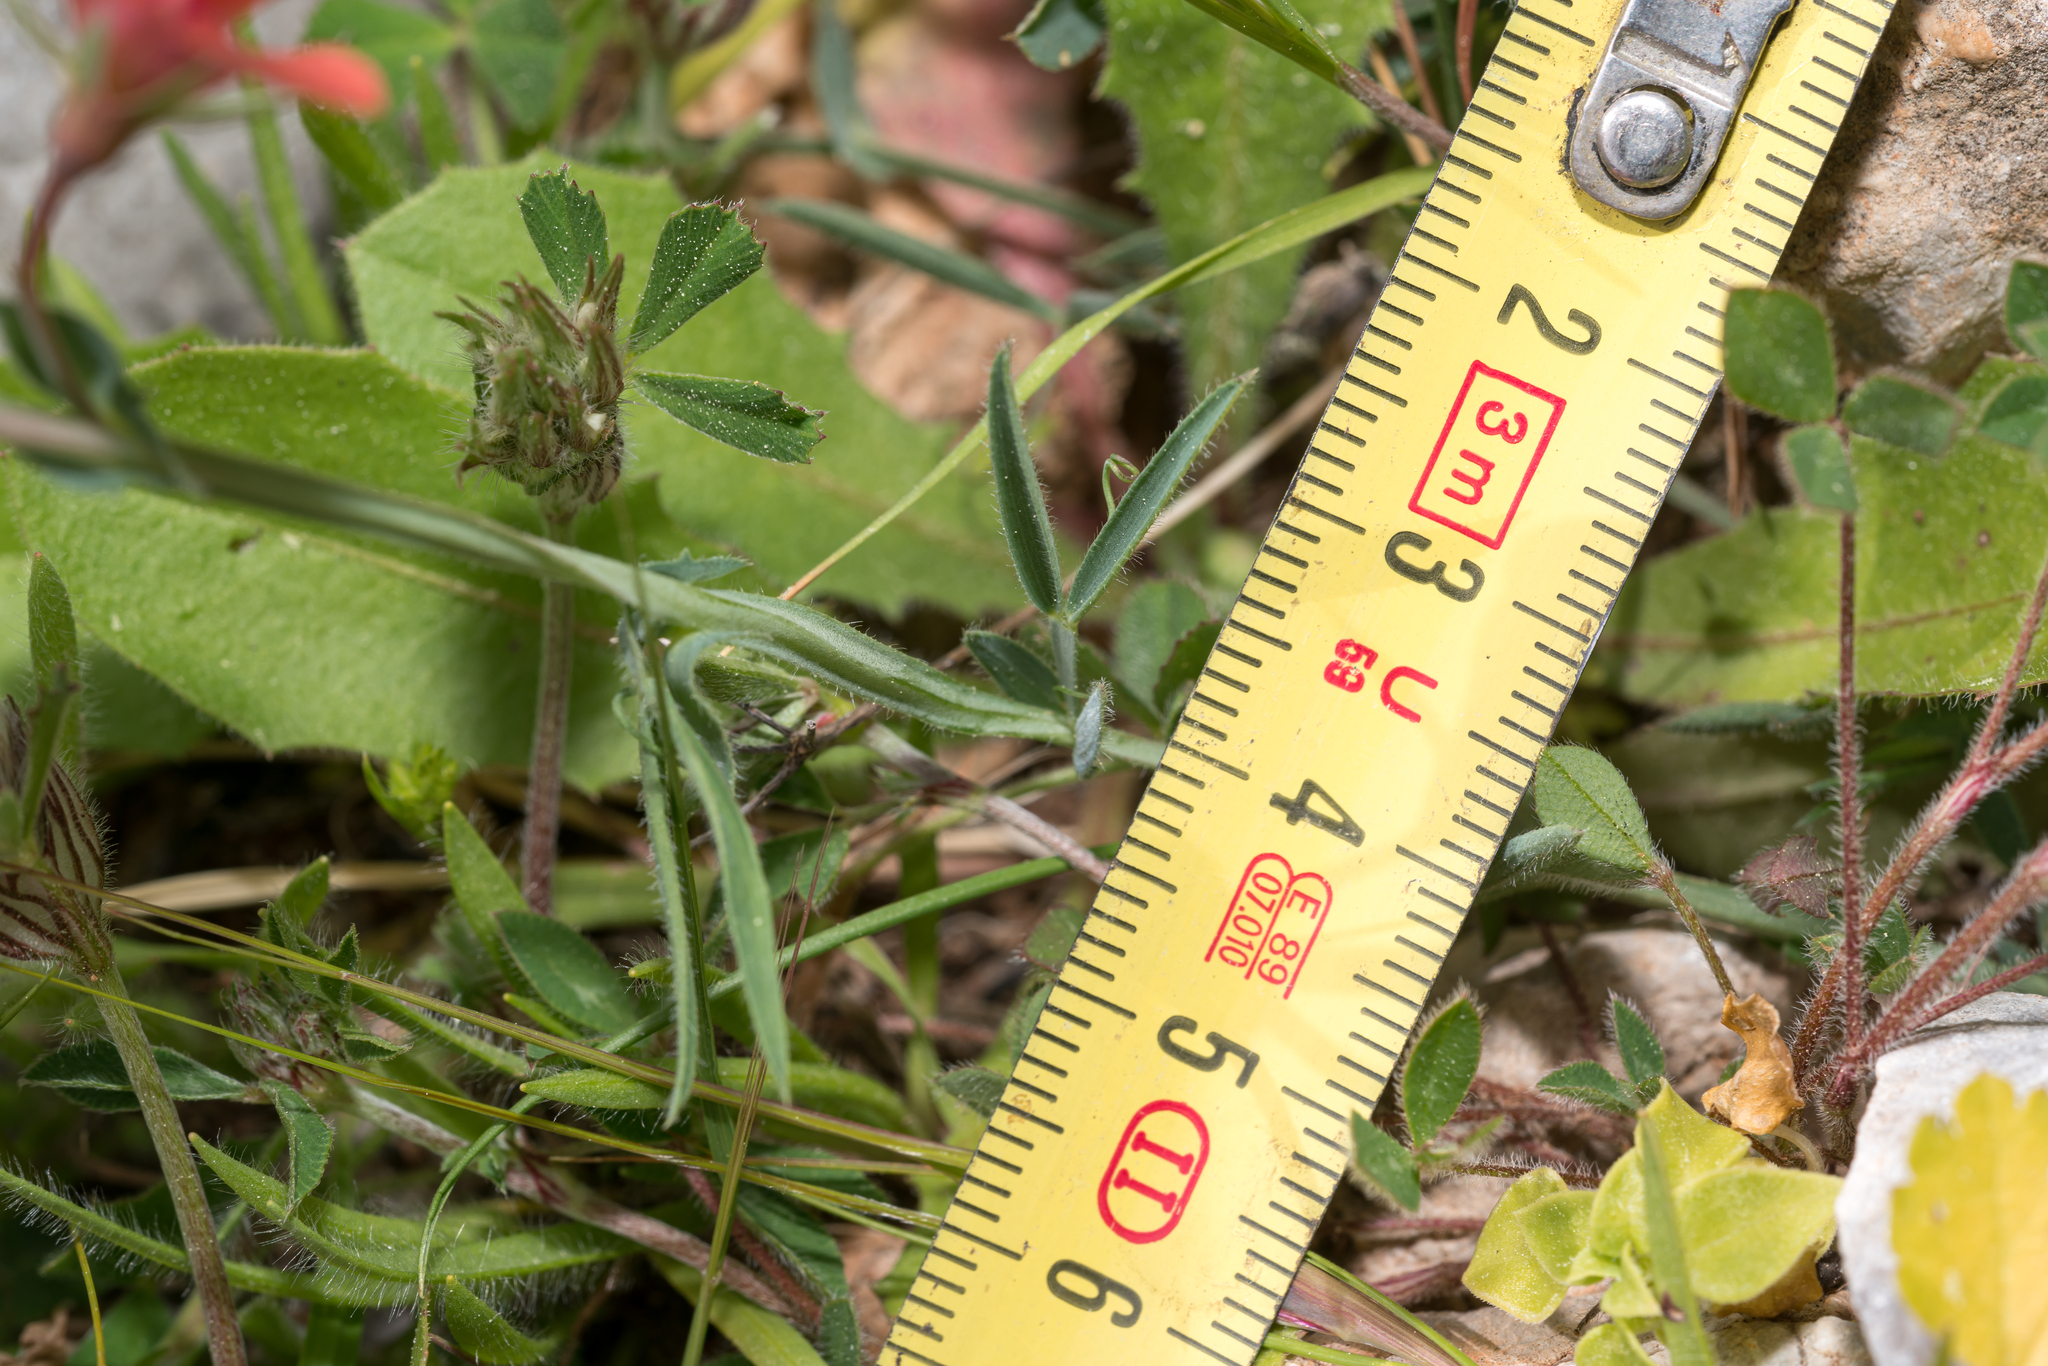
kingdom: Plantae
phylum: Tracheophyta
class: Magnoliopsida
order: Fabales
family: Fabaceae
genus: Lathyrus
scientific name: Lathyrus cicera
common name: Red vetchling
